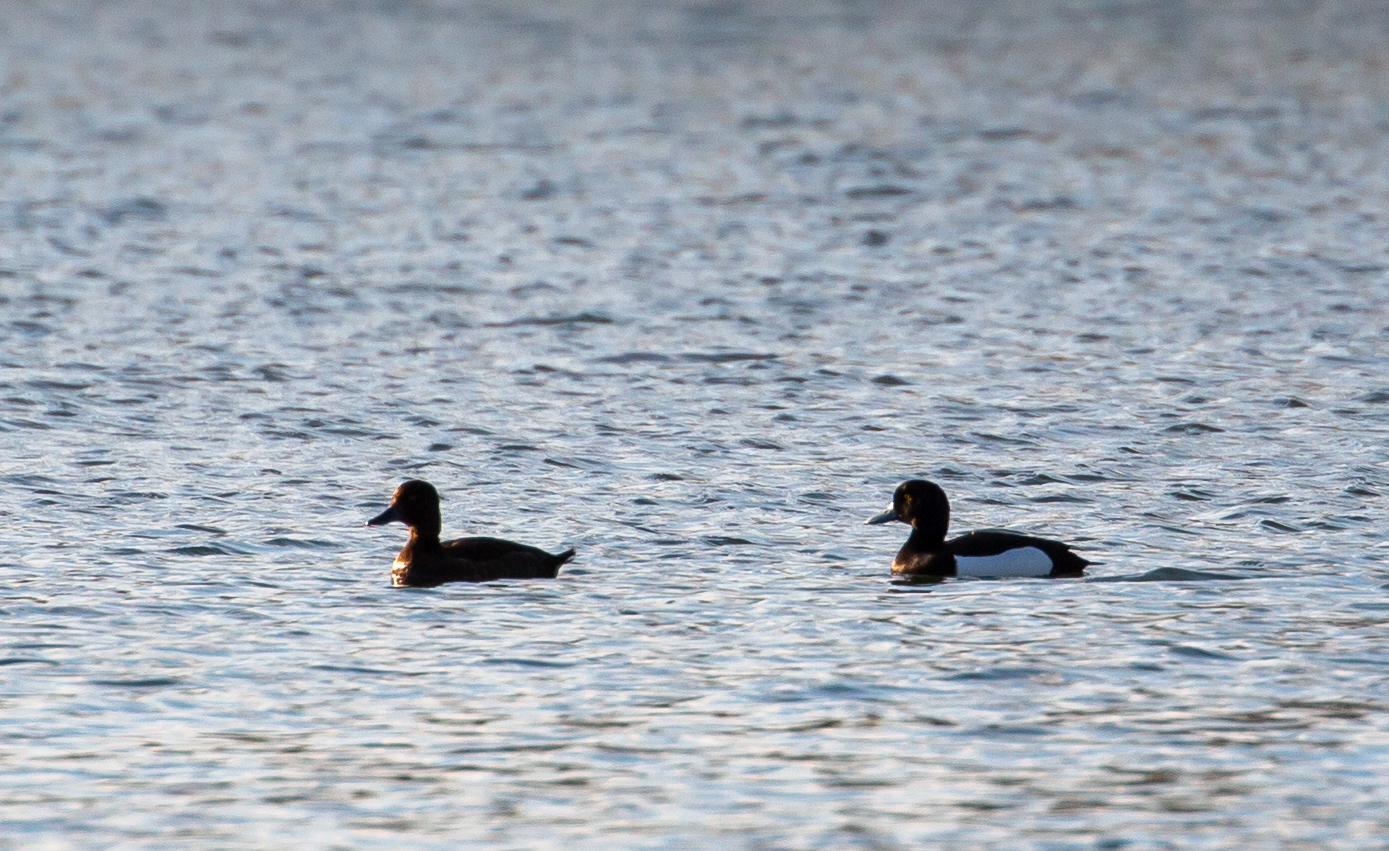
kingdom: Animalia
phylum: Chordata
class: Aves
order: Anseriformes
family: Anatidae
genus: Aythya
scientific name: Aythya fuligula
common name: Tufted duck
